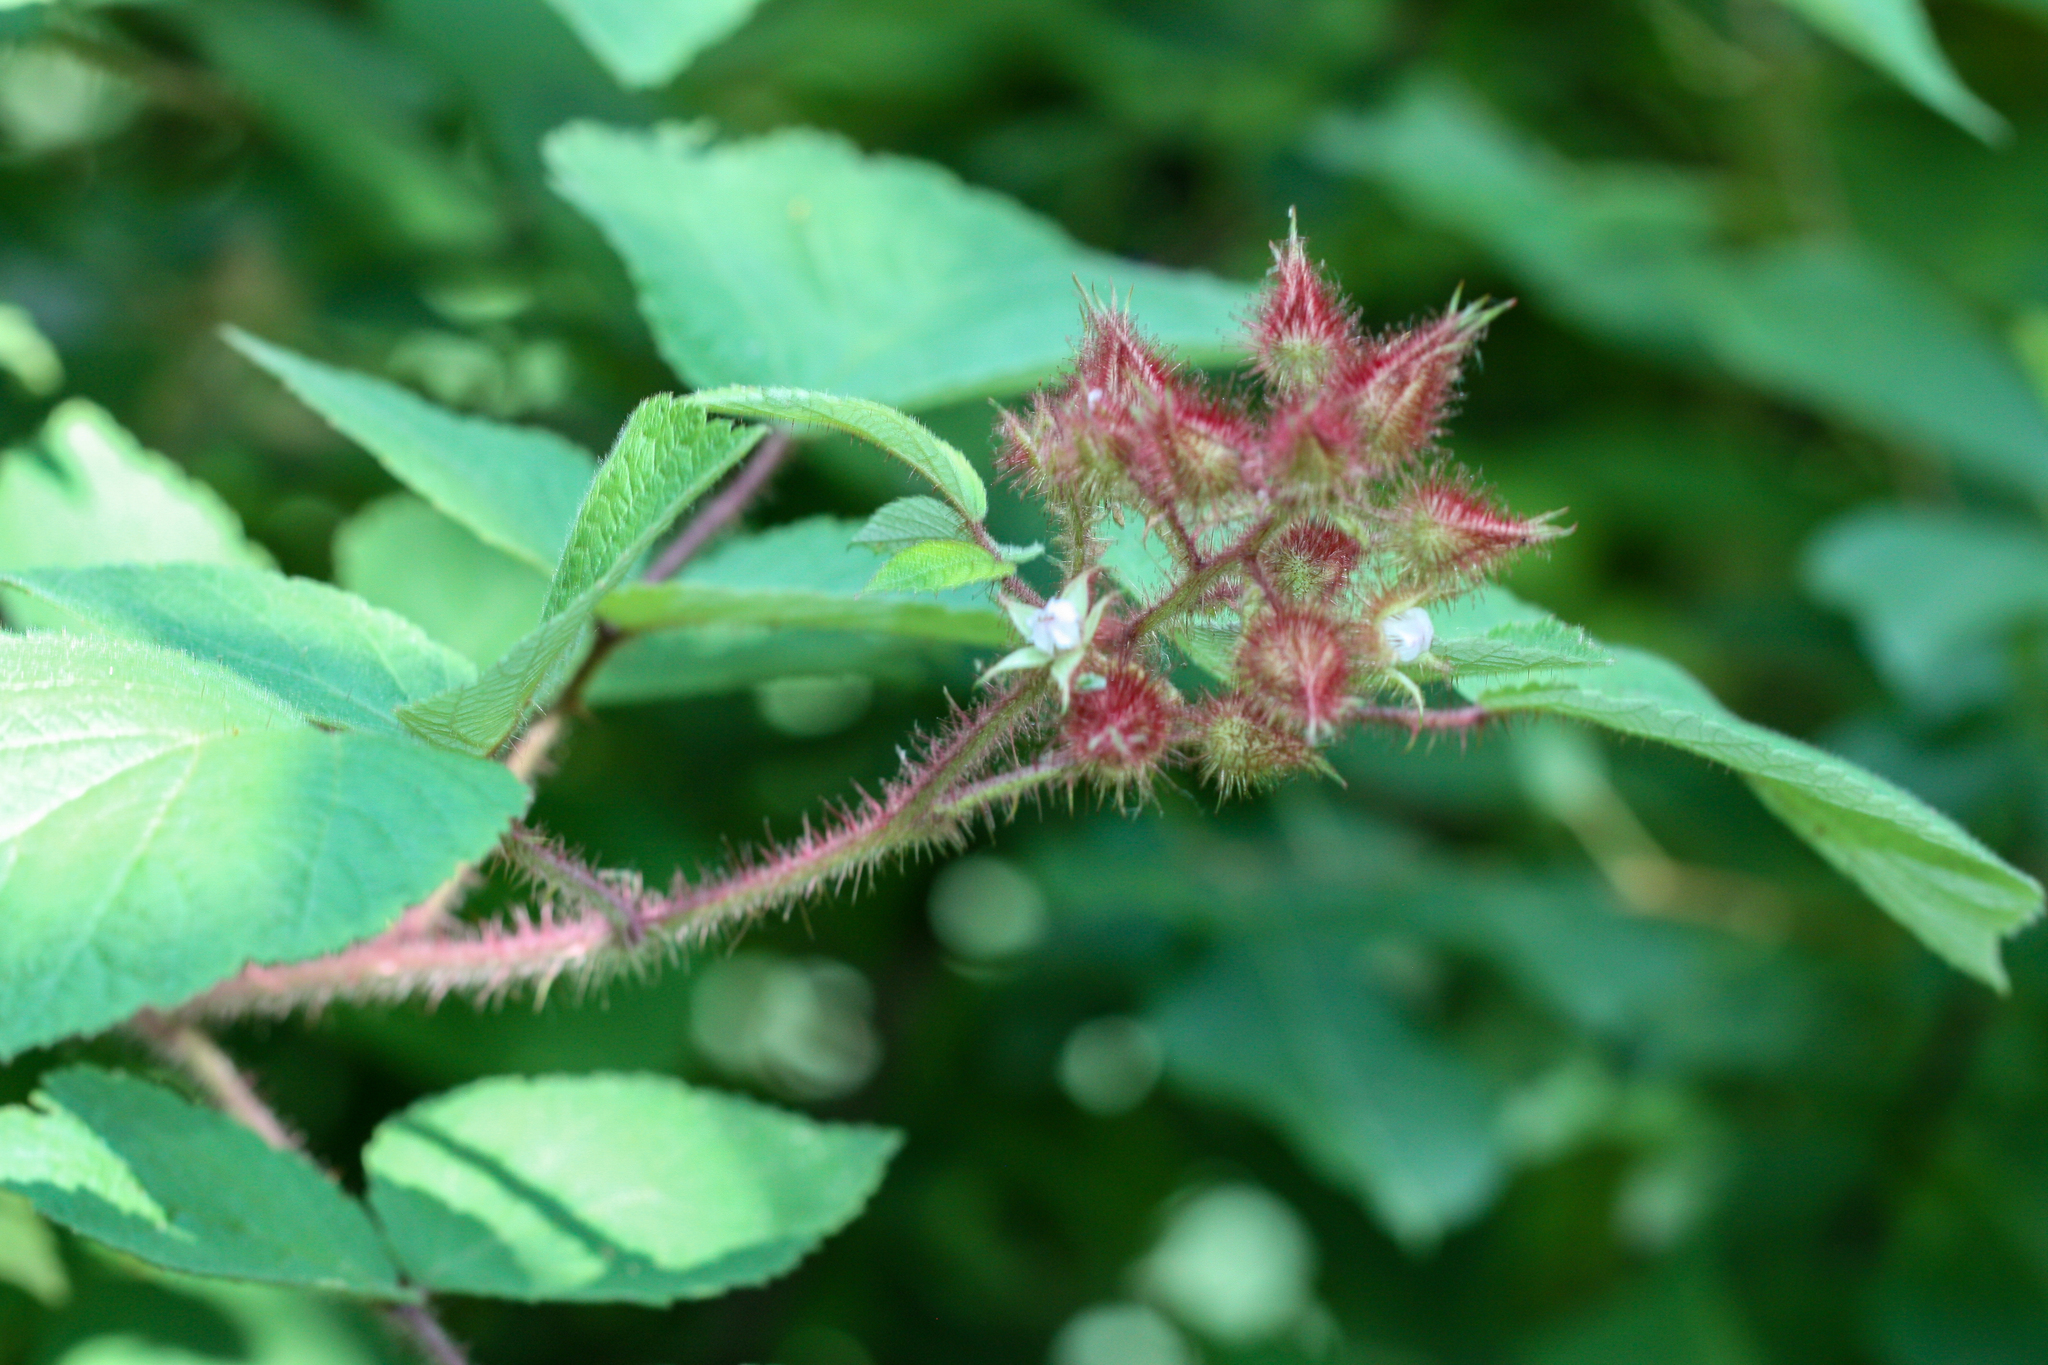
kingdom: Plantae
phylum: Tracheophyta
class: Magnoliopsida
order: Rosales
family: Rosaceae
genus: Rubus
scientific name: Rubus phoenicolasius
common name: Japanese wineberry
